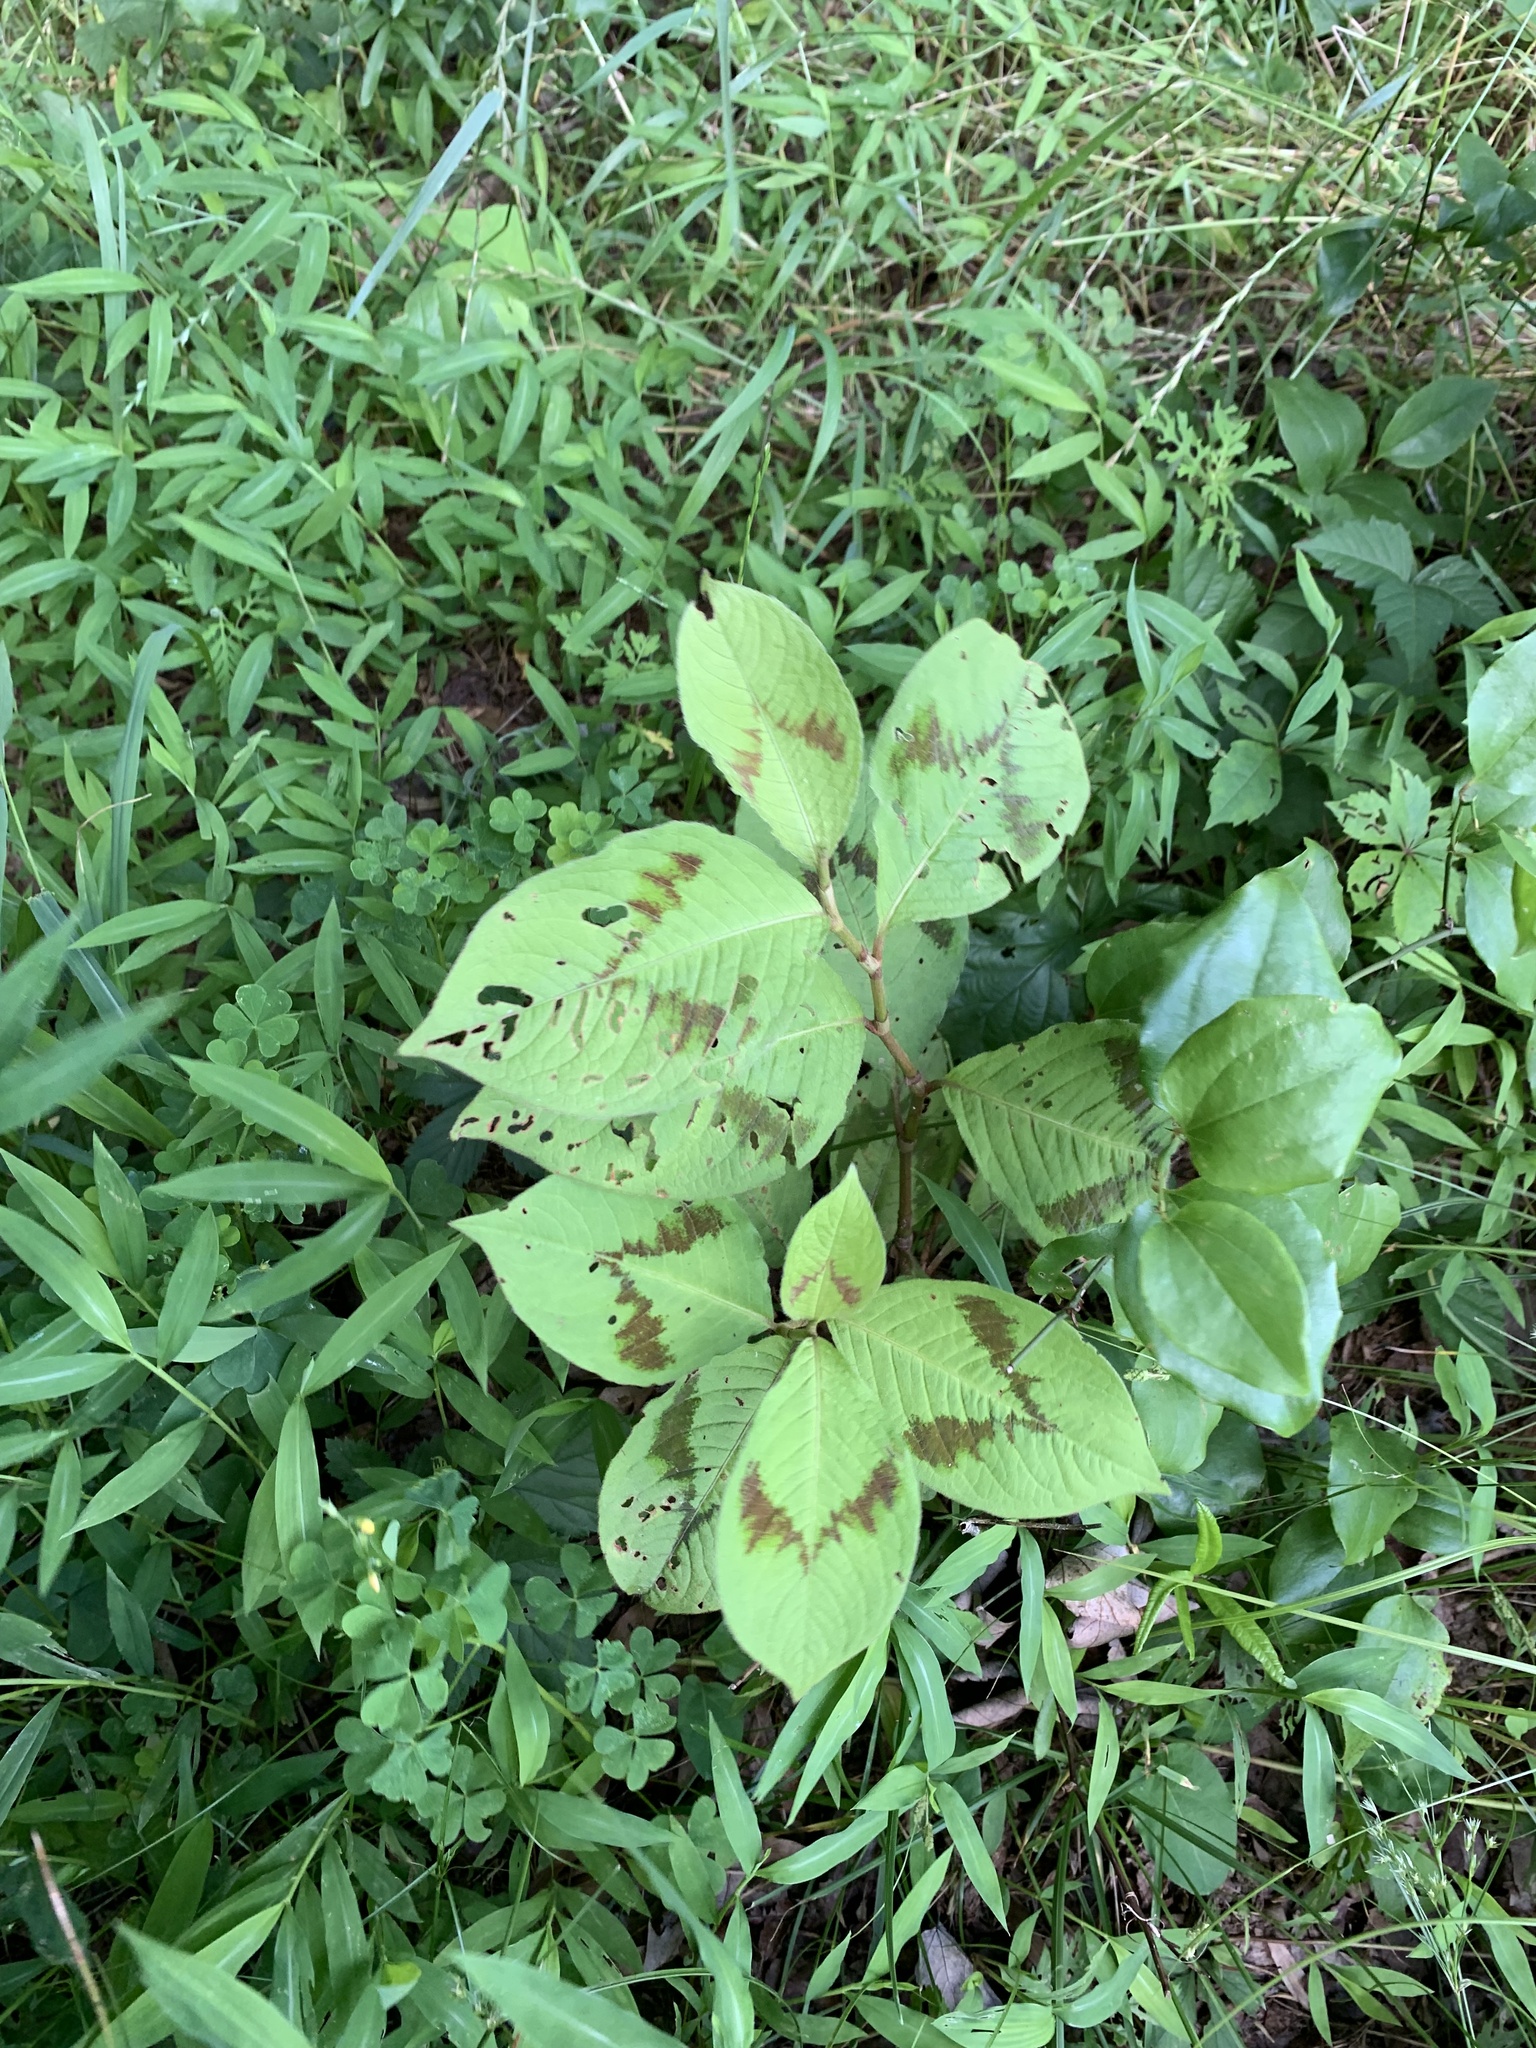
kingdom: Plantae
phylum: Tracheophyta
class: Magnoliopsida
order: Caryophyllales
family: Polygonaceae
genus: Persicaria
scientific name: Persicaria filiformis
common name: Asian jumpseed
